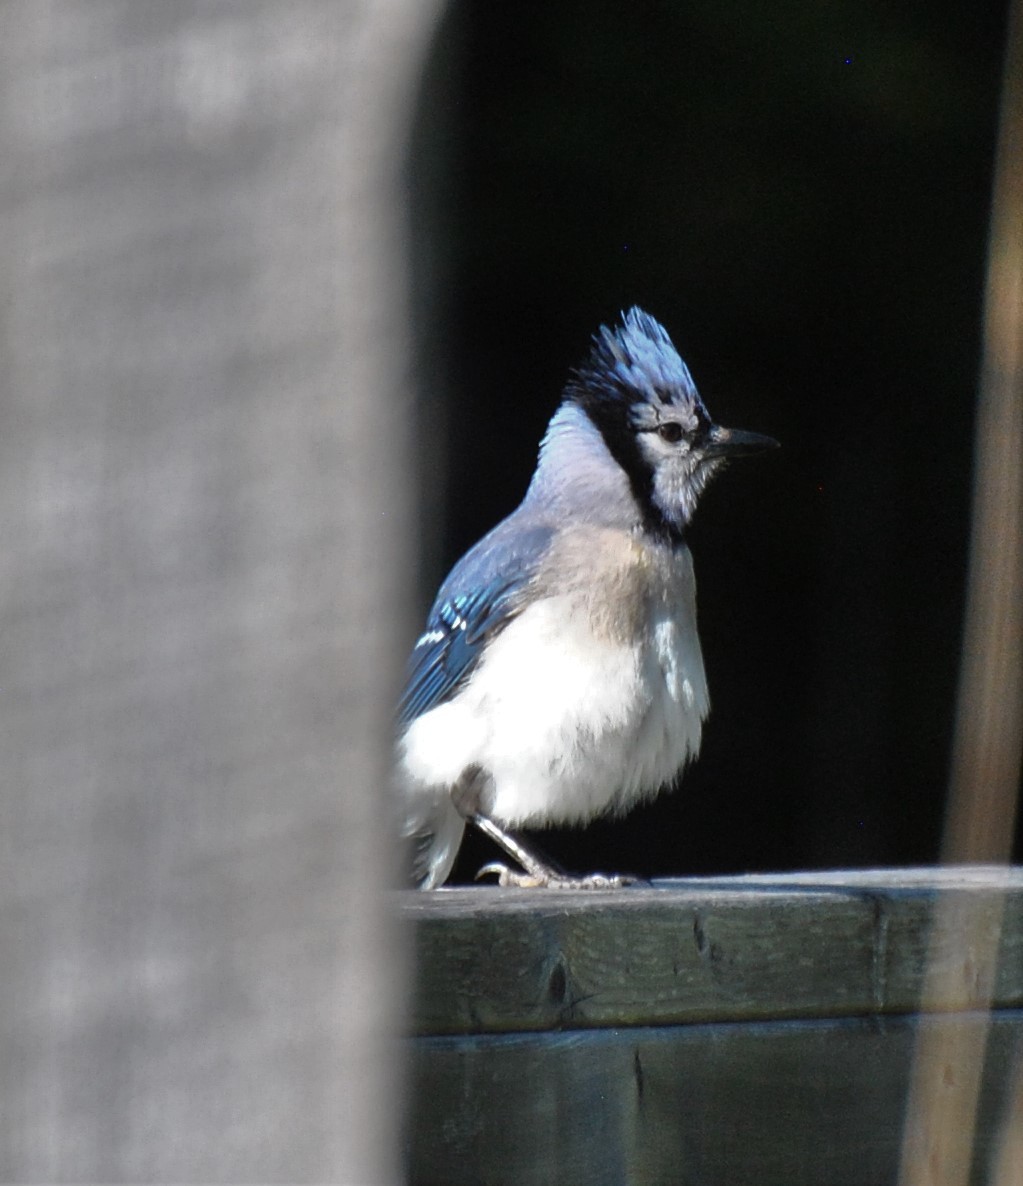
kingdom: Animalia
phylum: Chordata
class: Aves
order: Passeriformes
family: Corvidae
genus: Cyanocitta
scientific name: Cyanocitta cristata
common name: Blue jay
